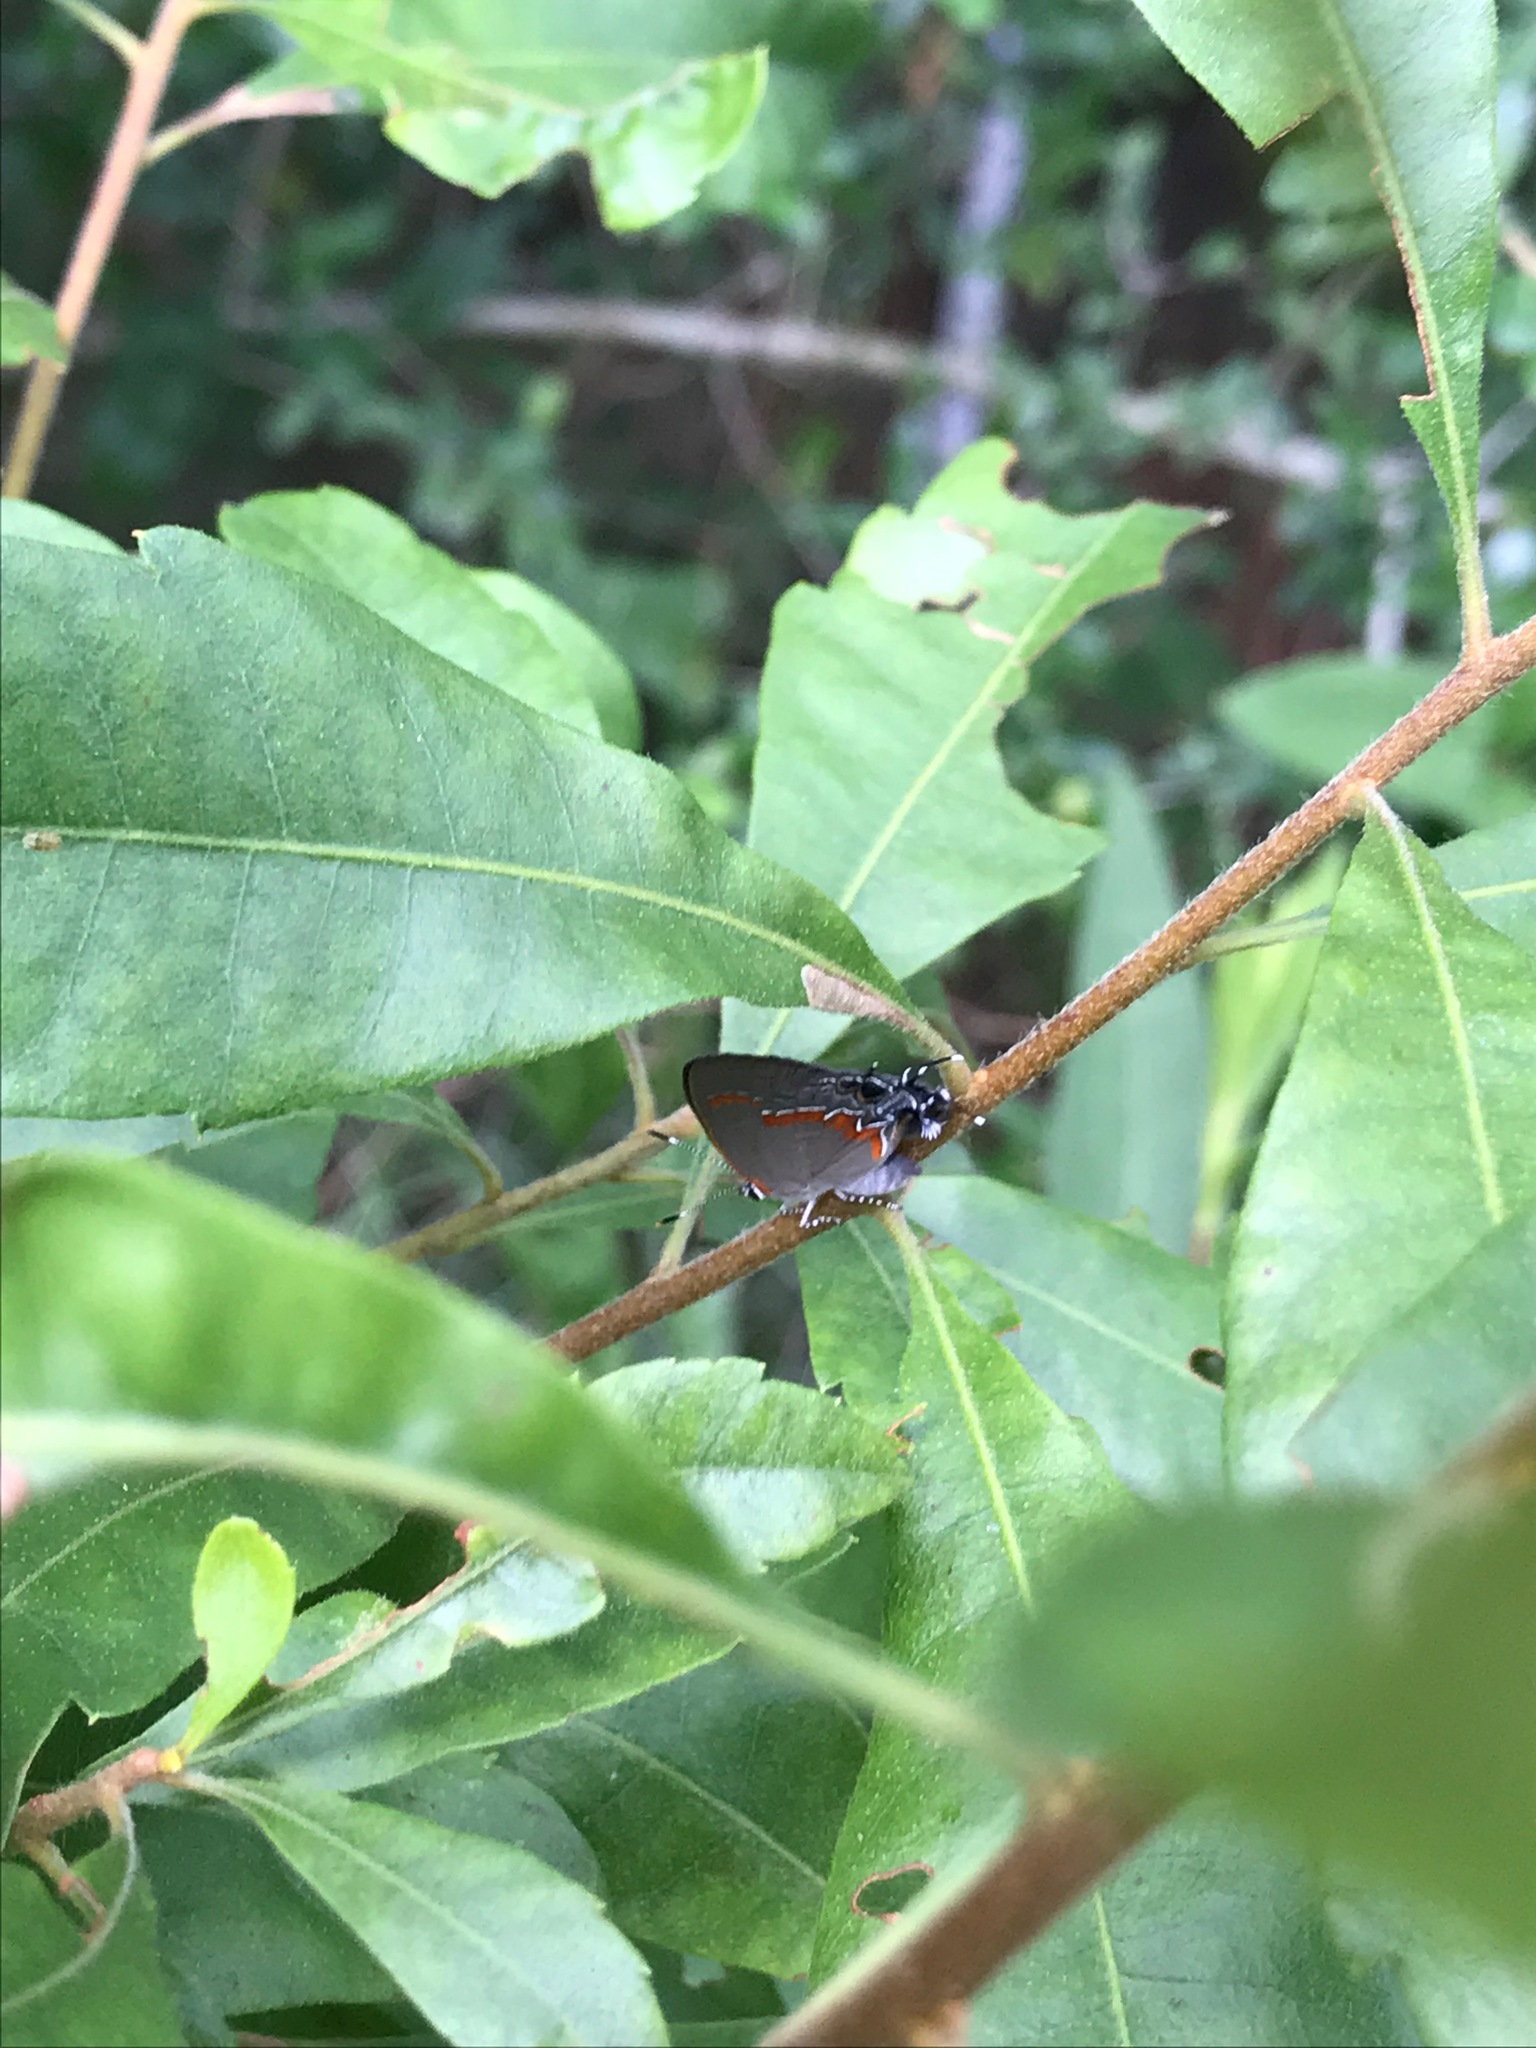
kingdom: Animalia
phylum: Arthropoda
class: Insecta
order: Lepidoptera
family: Lycaenidae
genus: Calycopis
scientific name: Calycopis cecrops
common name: Red-banded hairstreak
